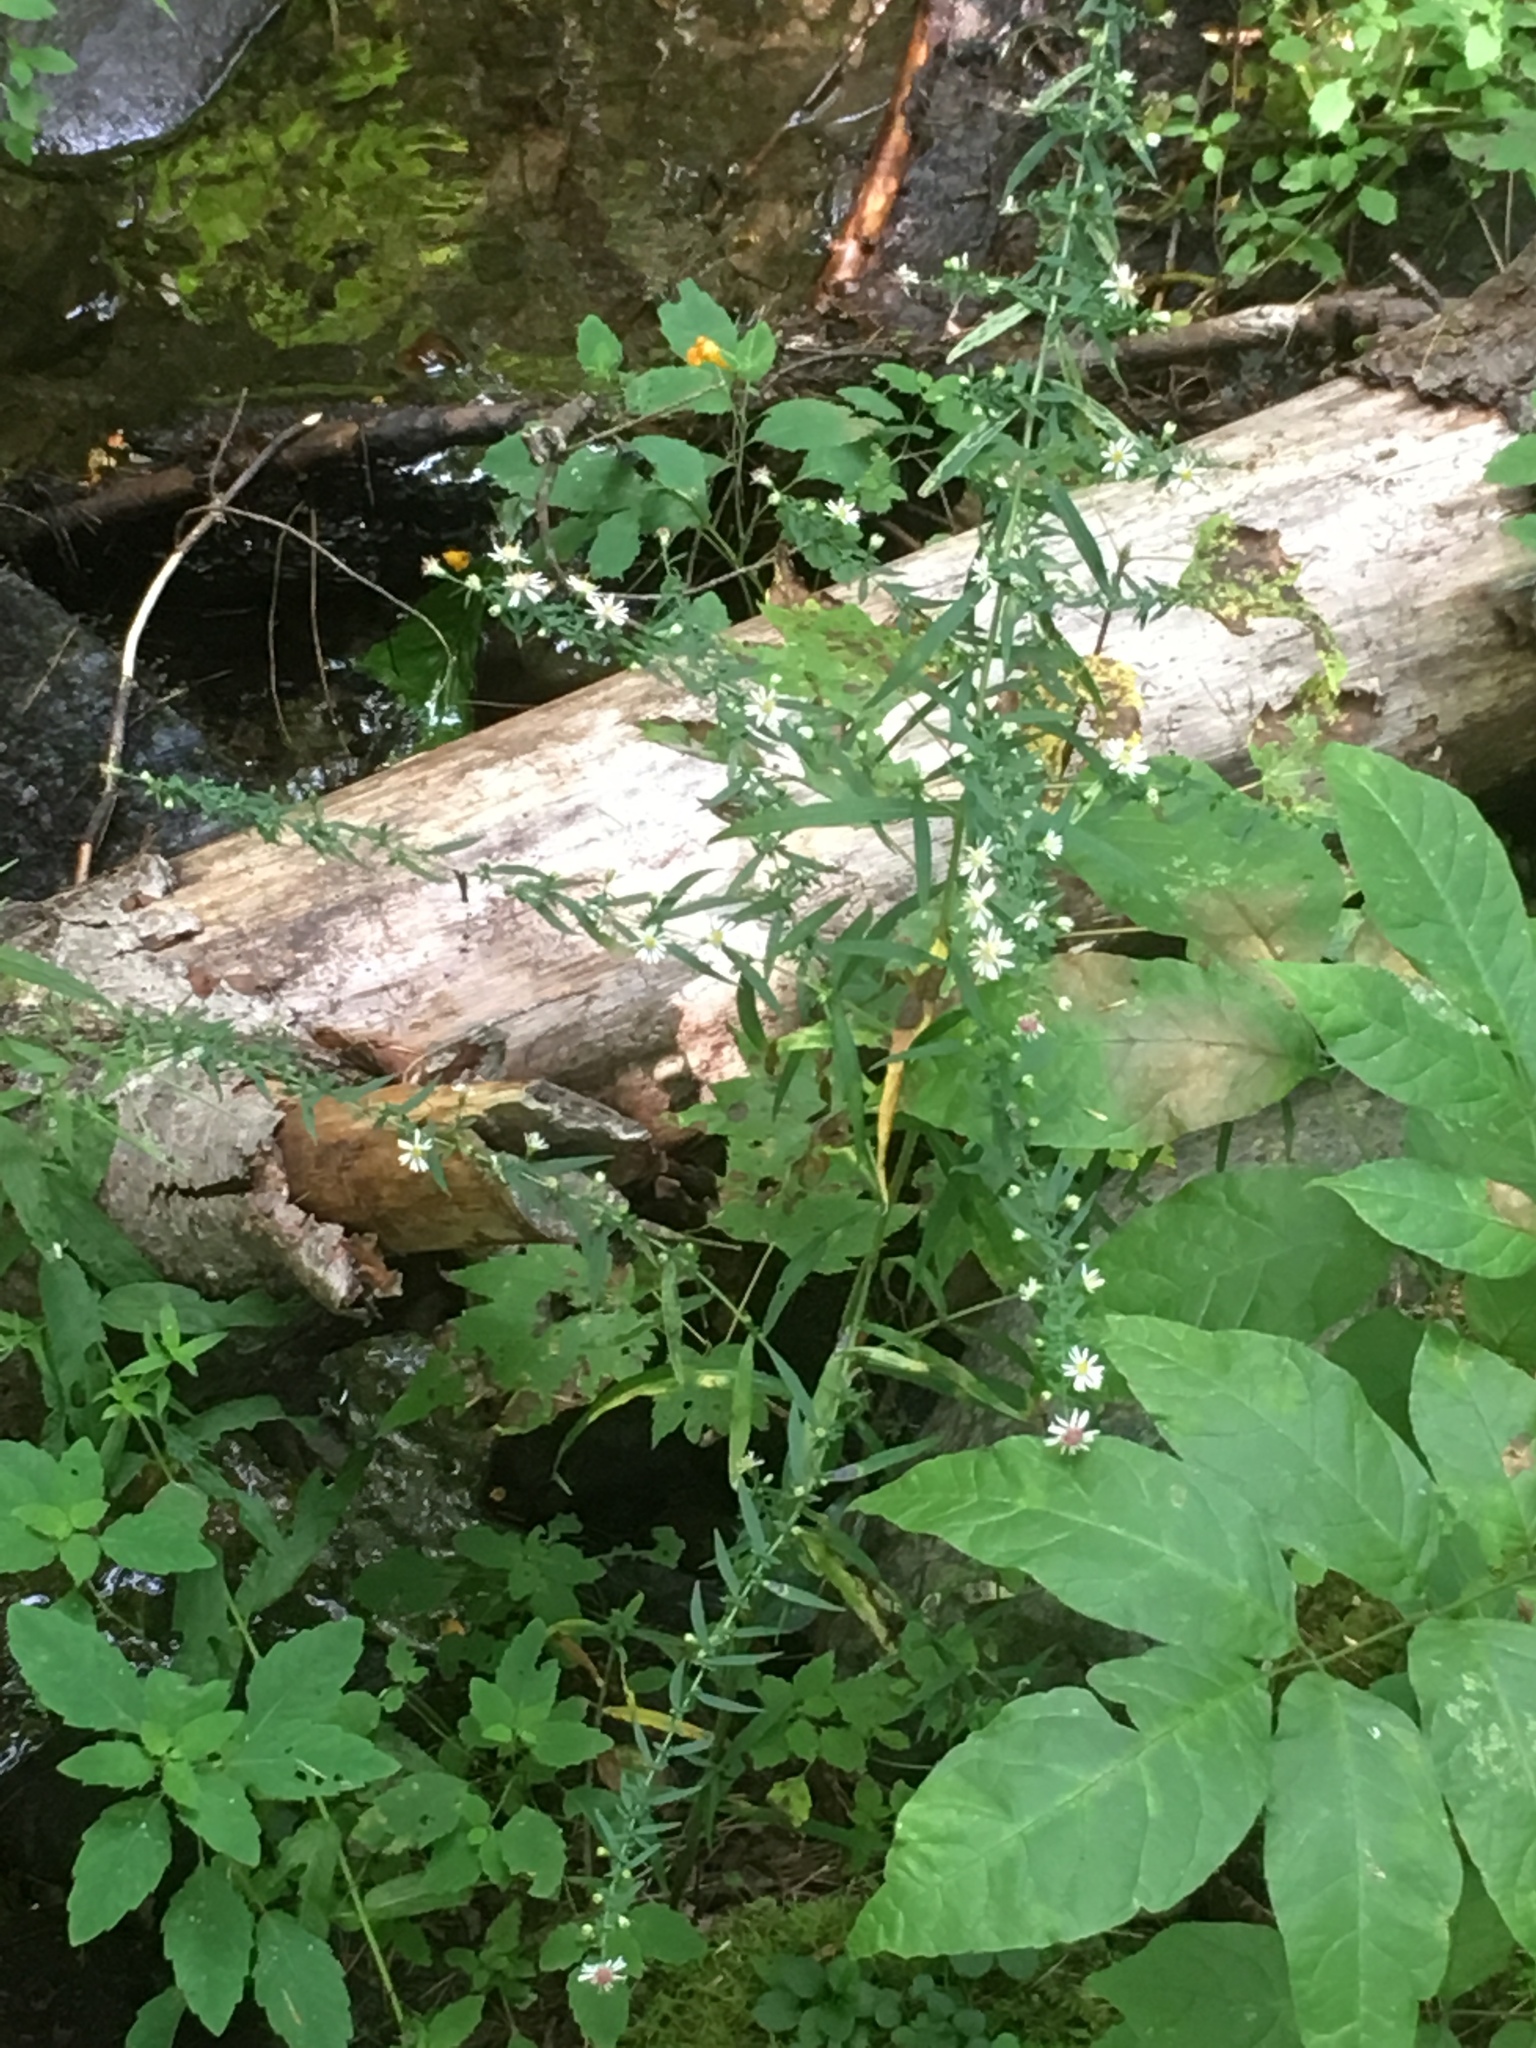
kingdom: Plantae
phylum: Tracheophyta
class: Magnoliopsida
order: Asterales
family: Asteraceae
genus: Symphyotrichum
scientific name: Symphyotrichum lateriflorum
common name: Calico aster
